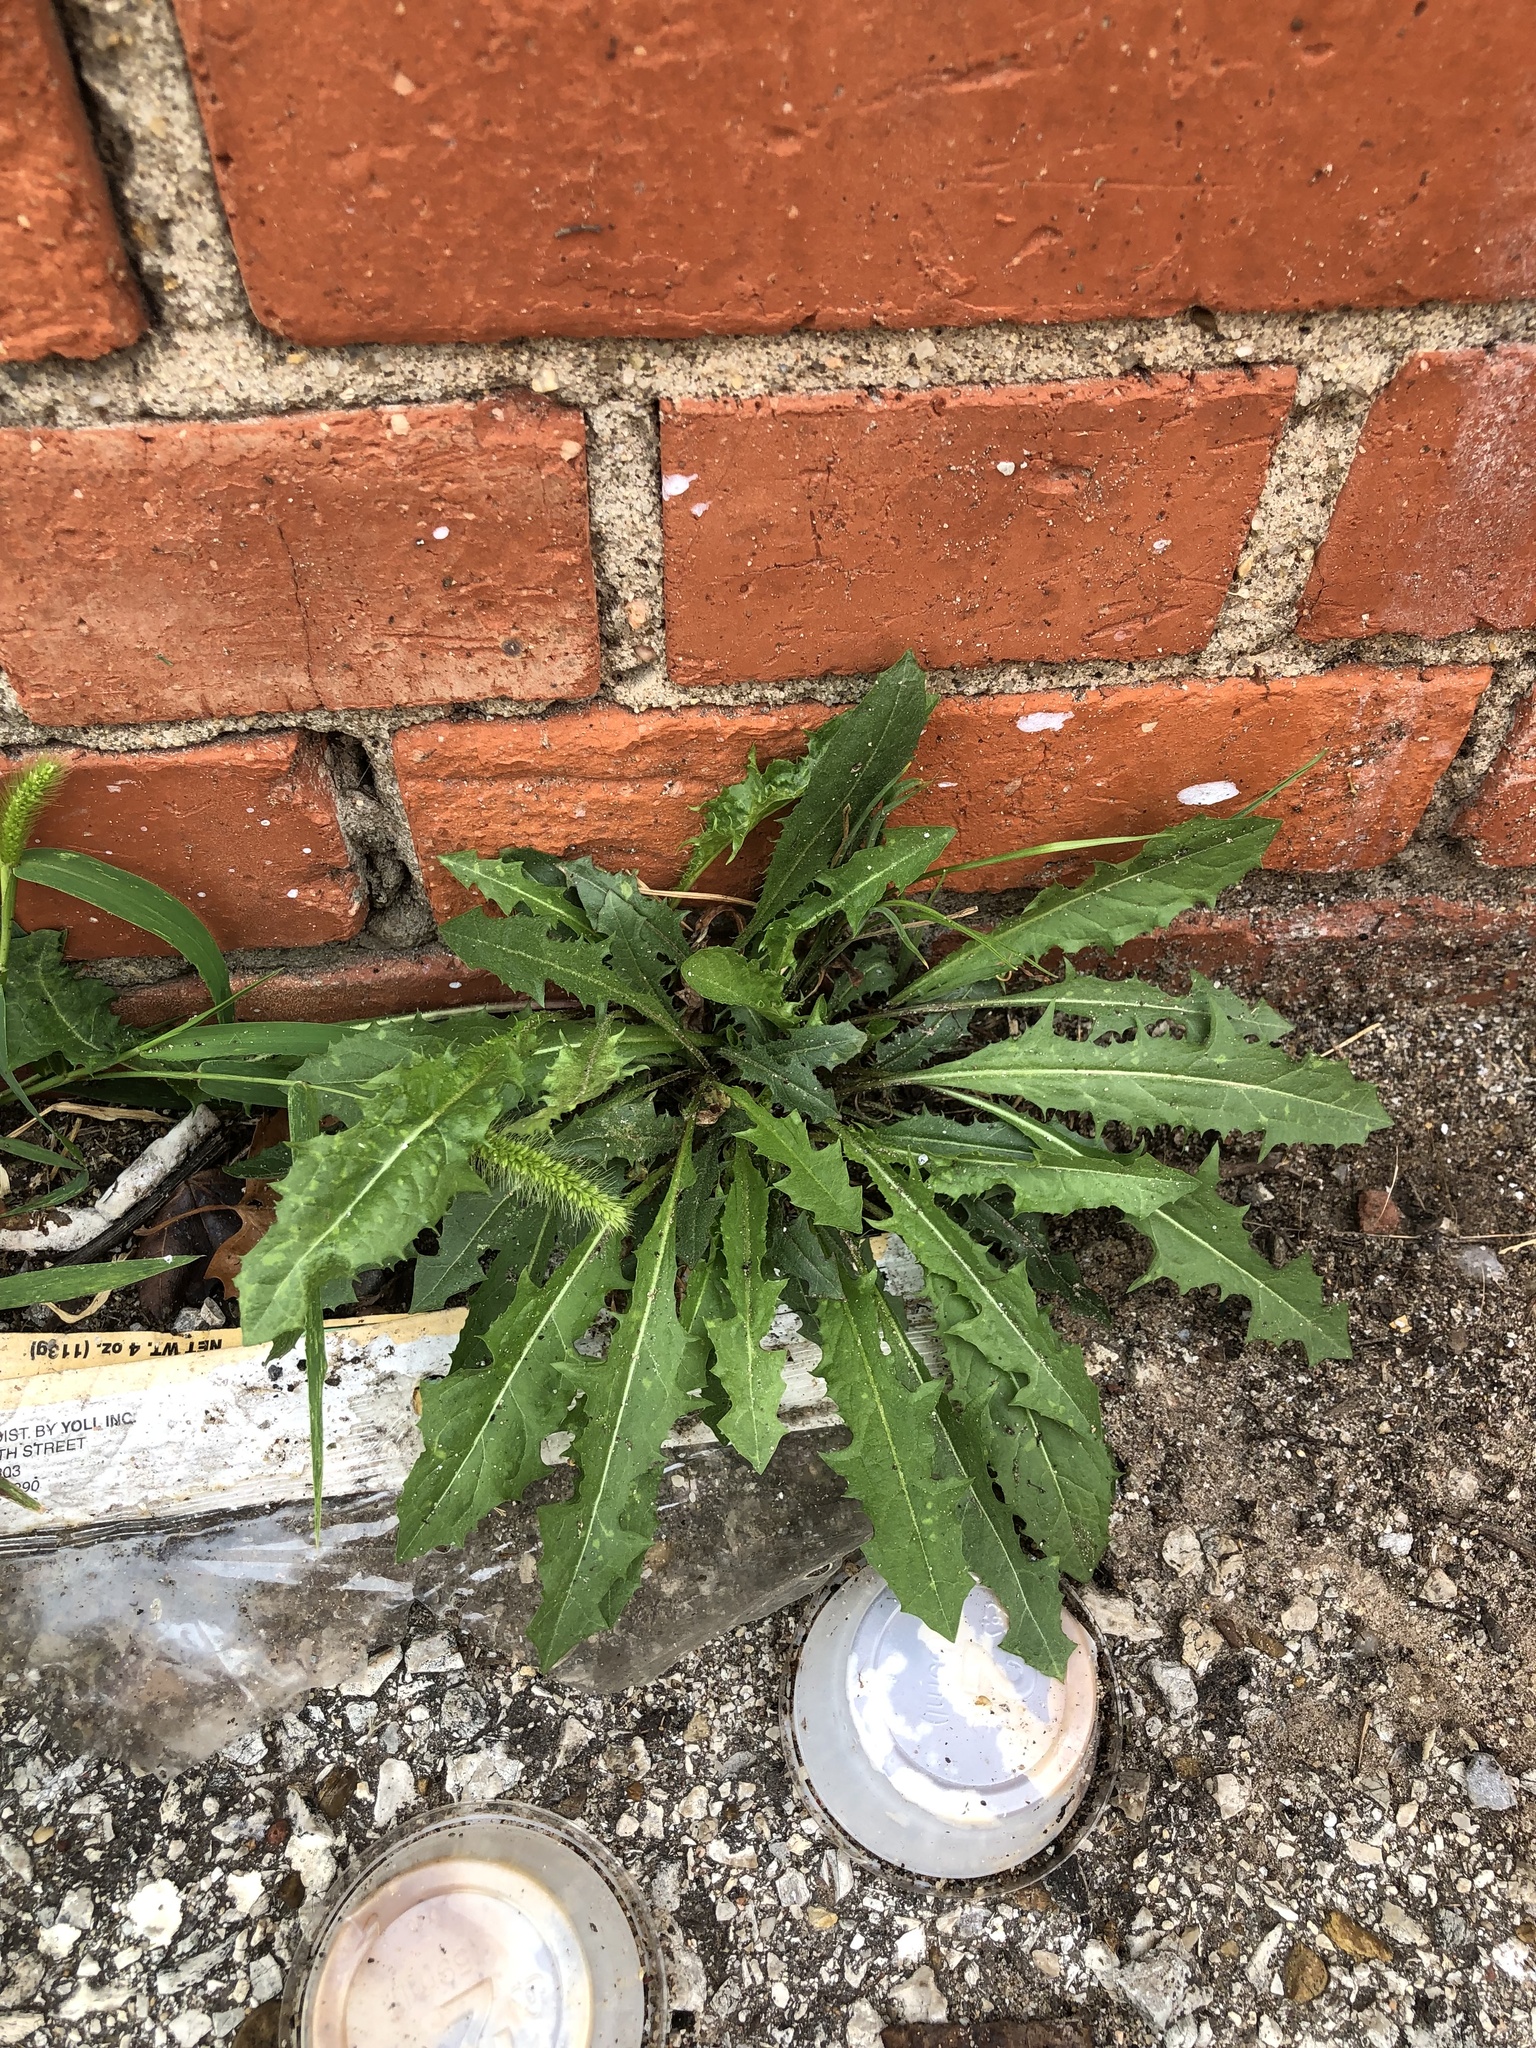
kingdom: Plantae
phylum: Tracheophyta
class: Magnoliopsida
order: Asterales
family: Asteraceae
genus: Taraxacum
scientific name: Taraxacum officinale
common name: Common dandelion
